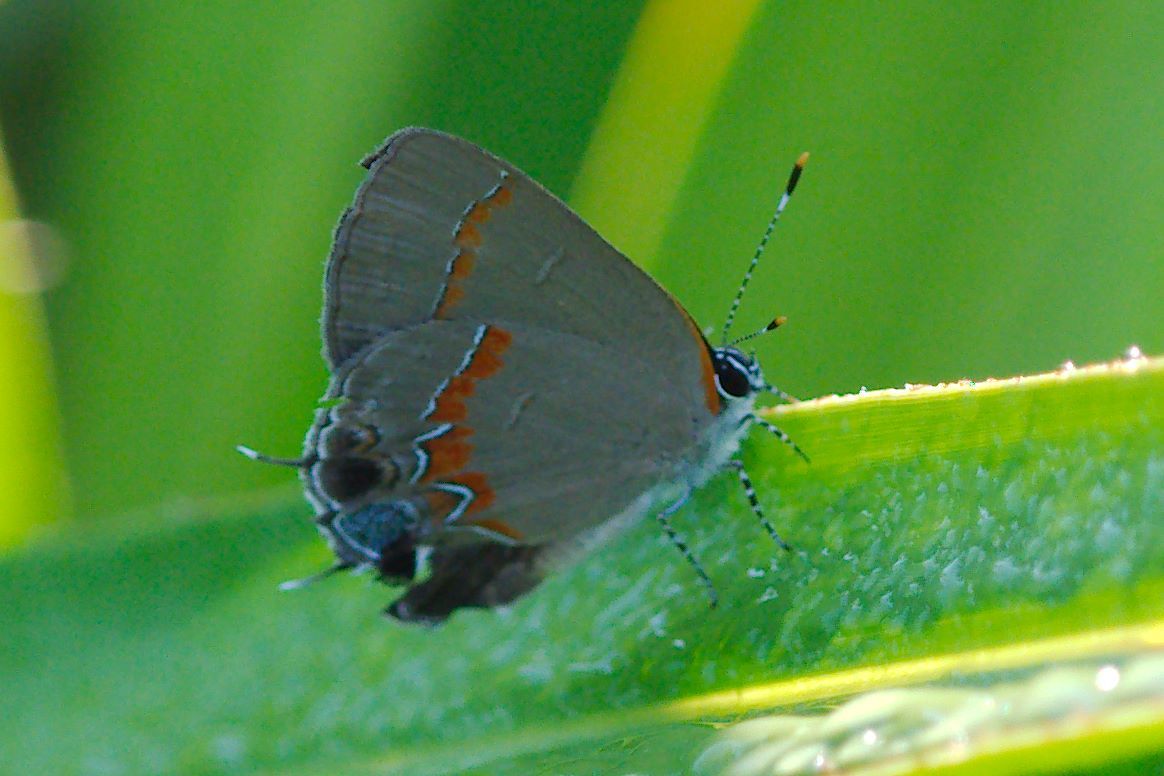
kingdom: Animalia
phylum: Arthropoda
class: Insecta
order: Lepidoptera
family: Lycaenidae
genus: Calycopis
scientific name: Calycopis cecrops
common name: Red-banded hairstreak
